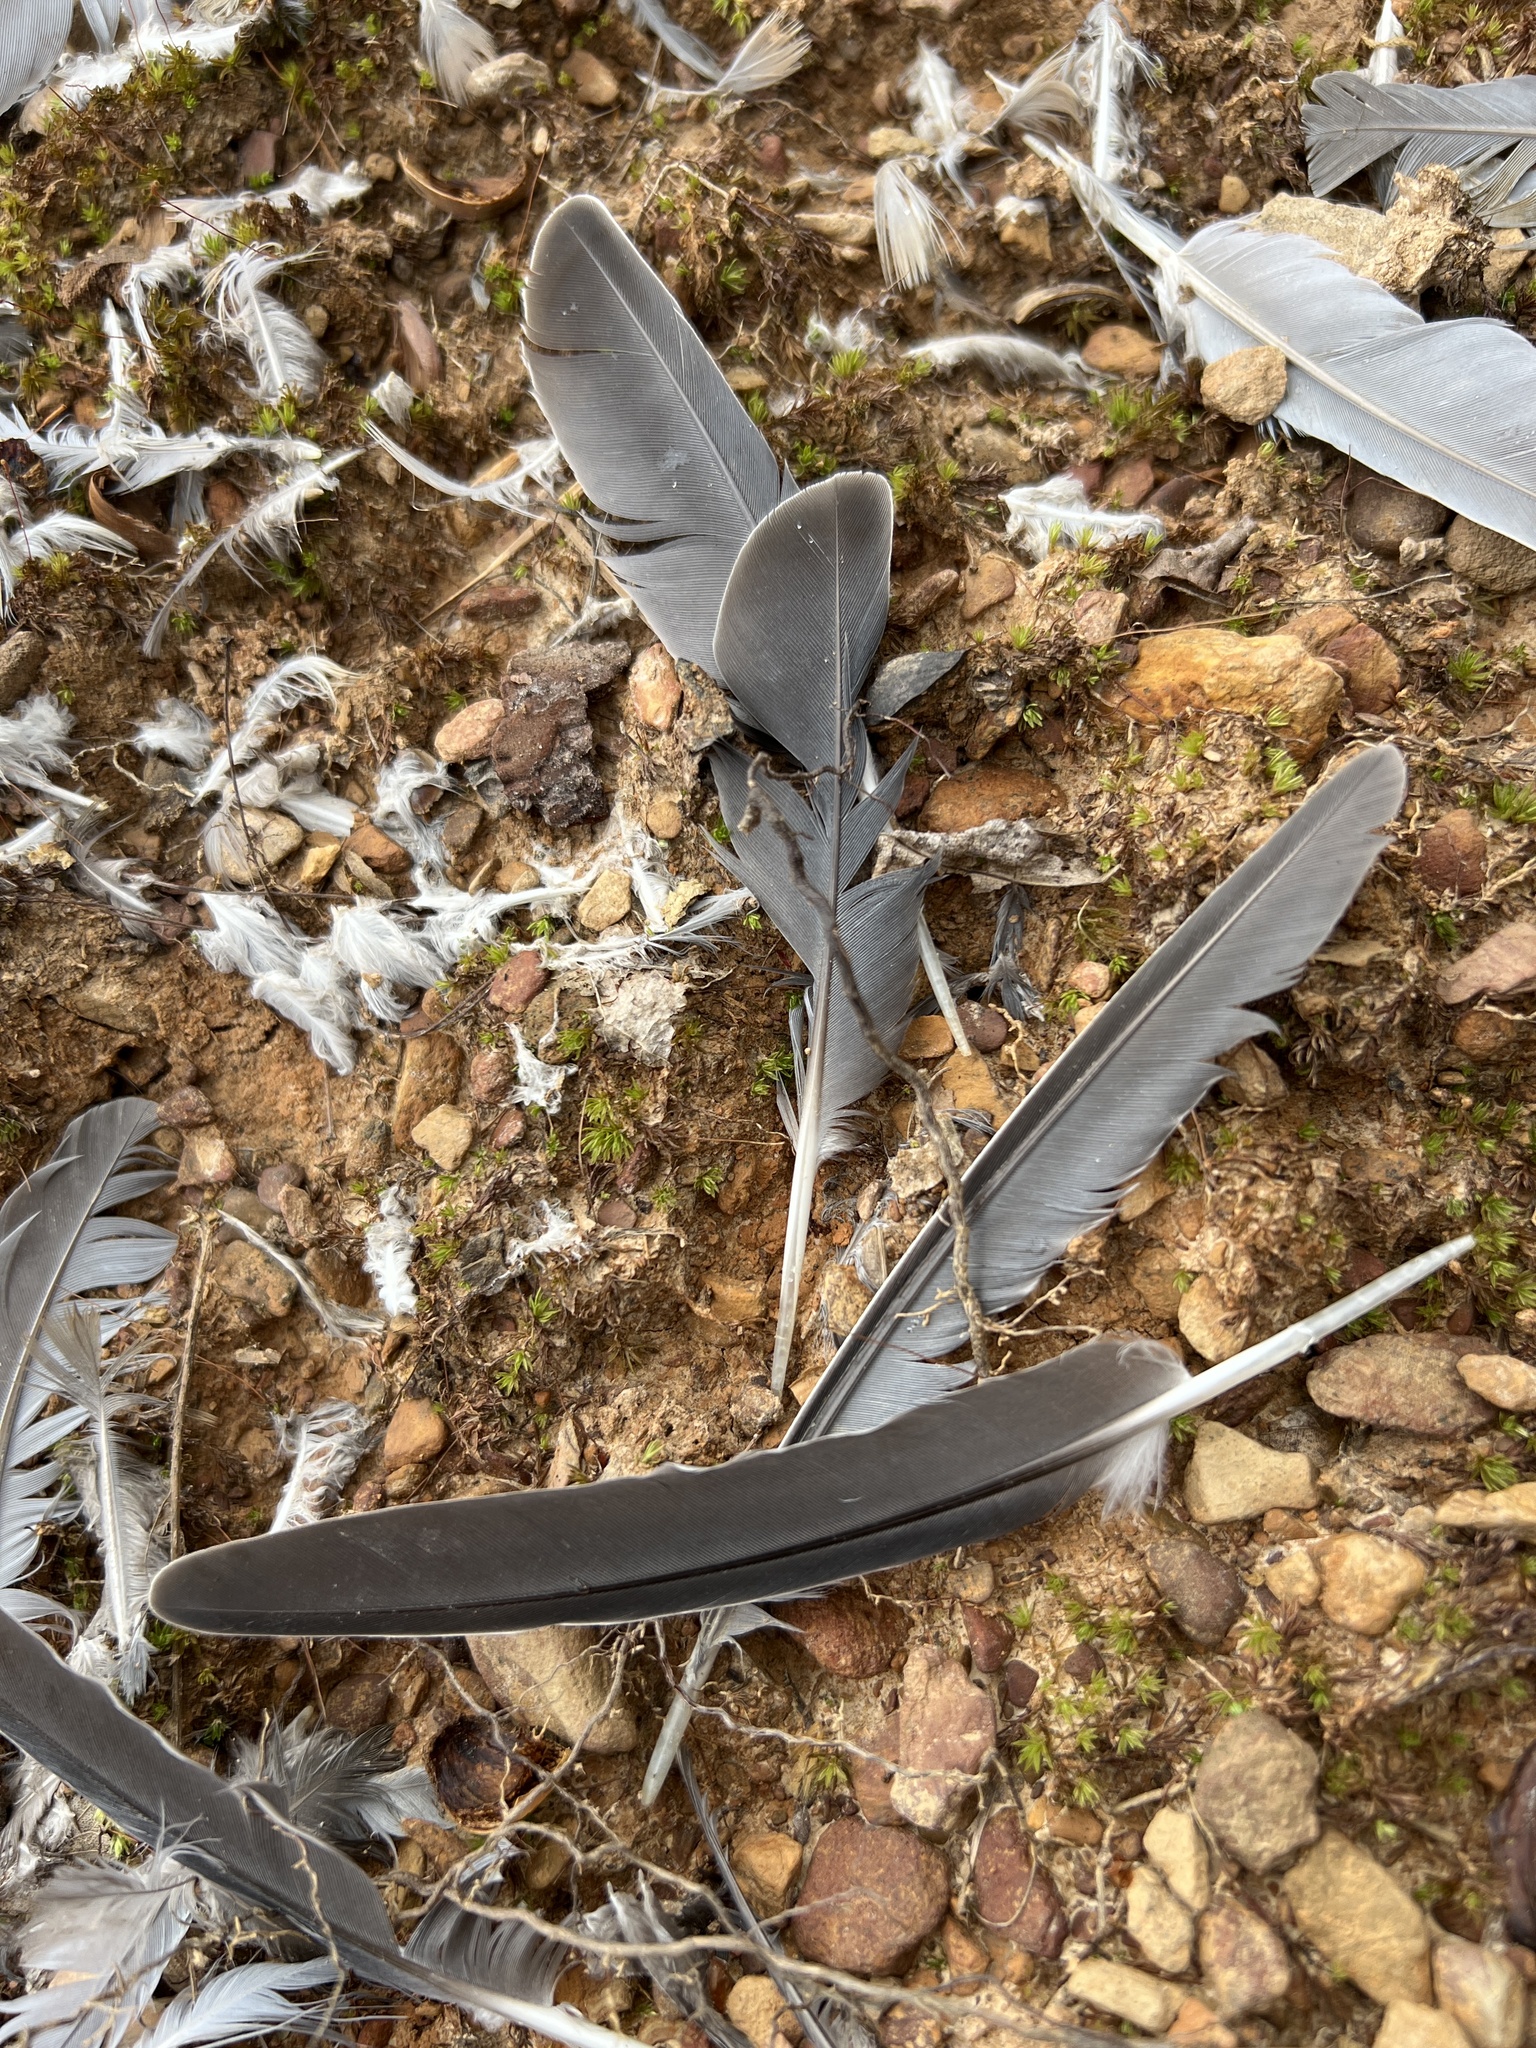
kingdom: Animalia
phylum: Chordata
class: Aves
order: Columbiformes
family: Columbidae
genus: Zenaida
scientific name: Zenaida macroura
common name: Mourning dove
